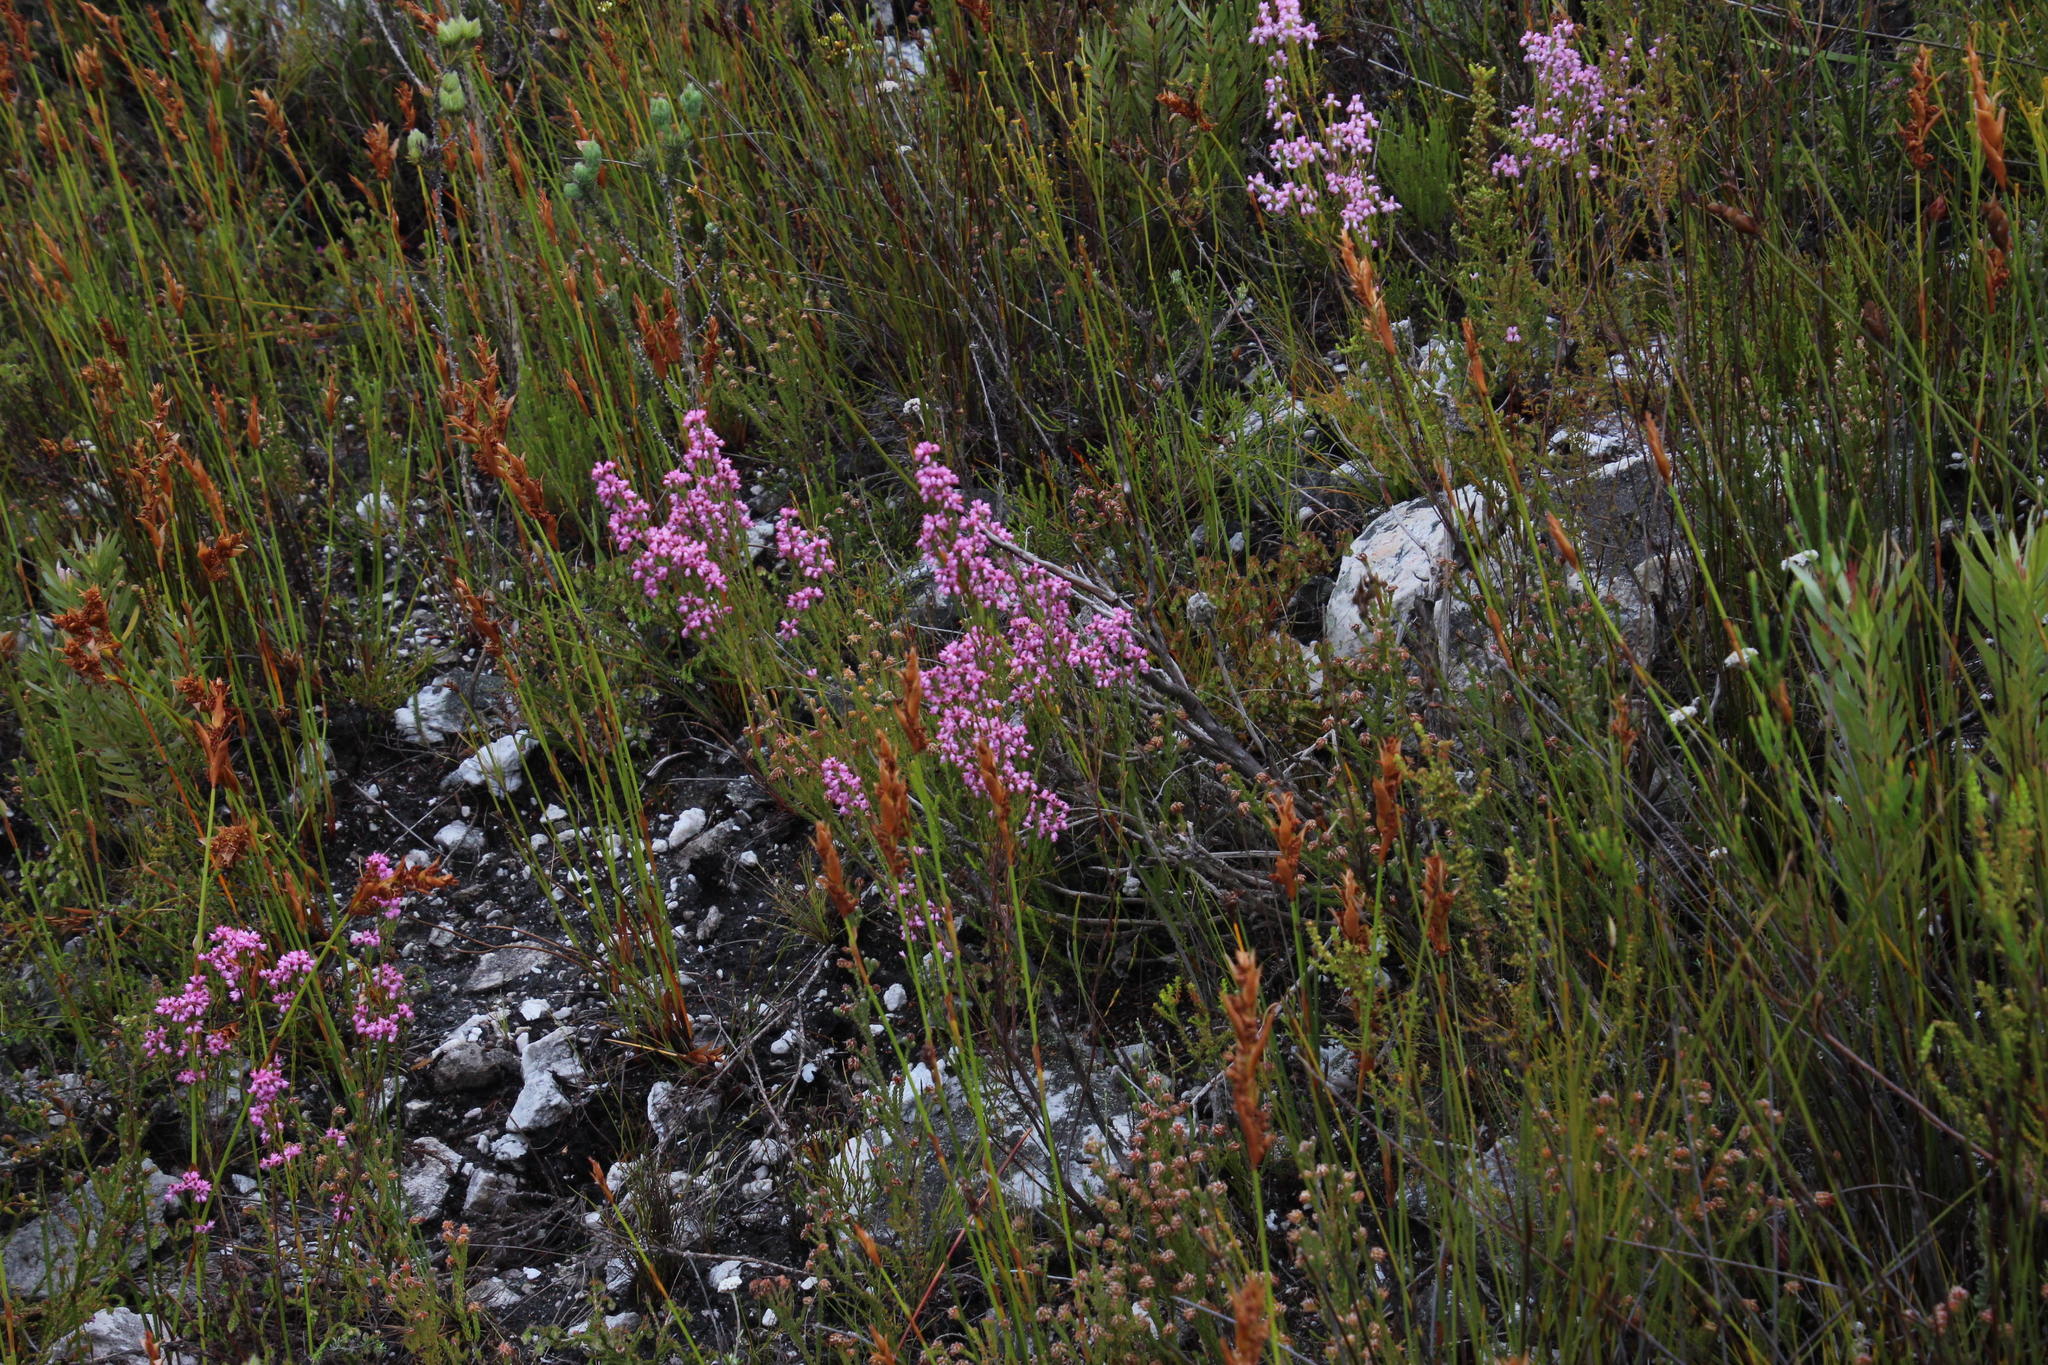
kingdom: Plantae
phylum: Tracheophyta
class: Magnoliopsida
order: Ericales
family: Ericaceae
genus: Erica
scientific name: Erica corifolia
